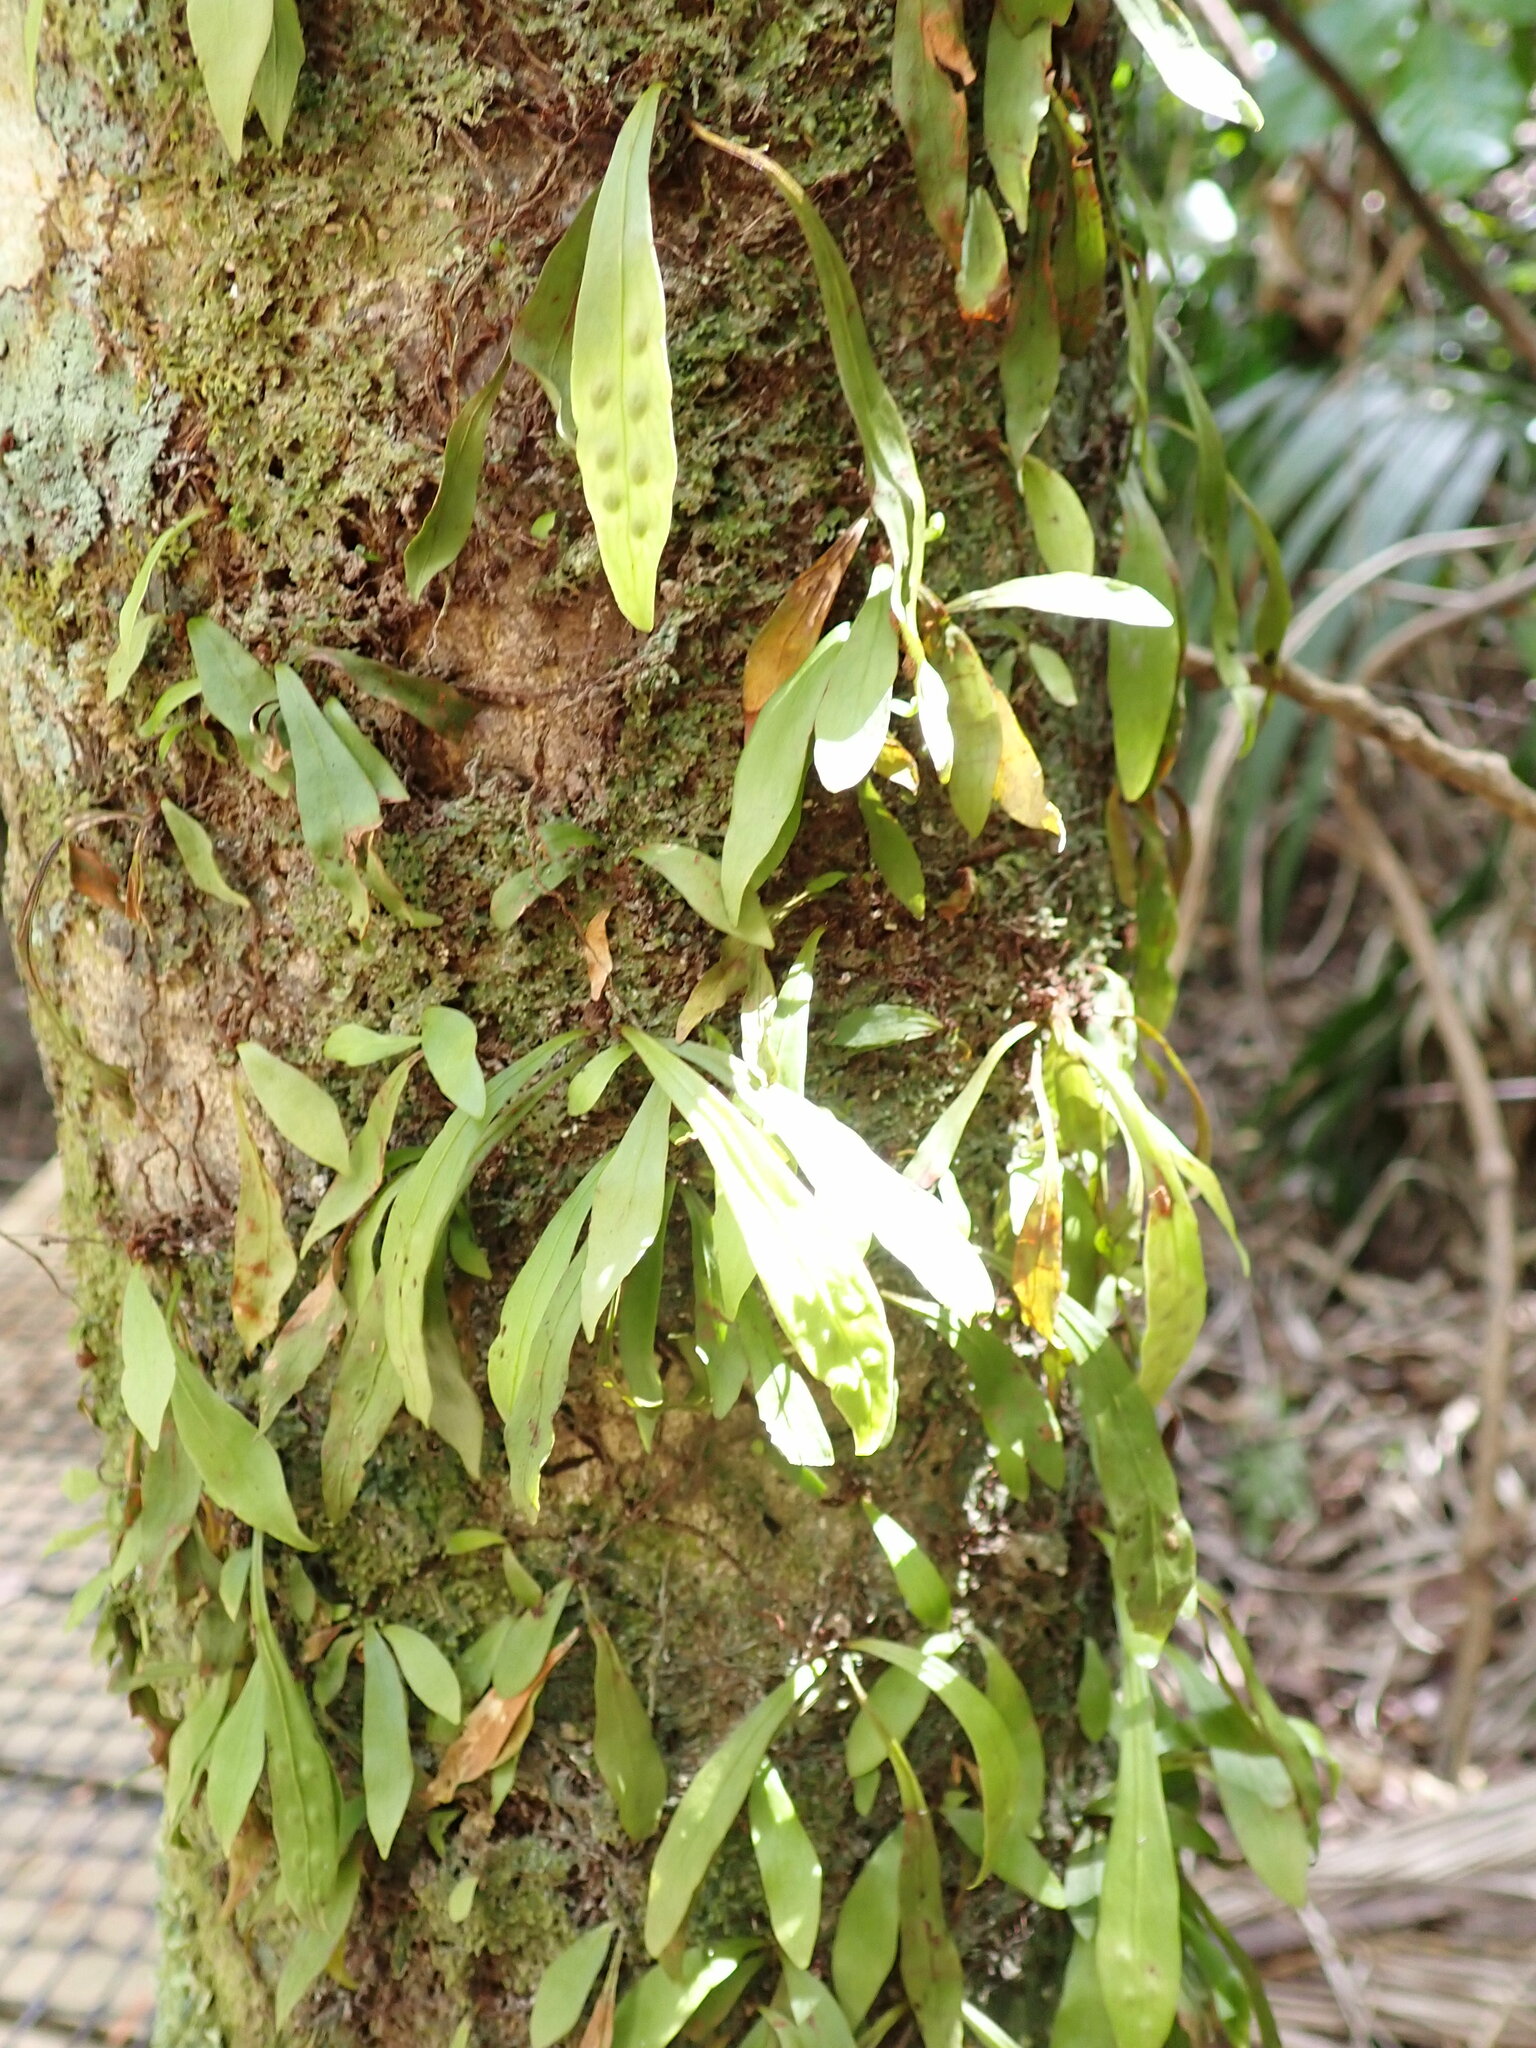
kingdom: Plantae
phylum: Tracheophyta
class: Polypodiopsida
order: Polypodiales
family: Polypodiaceae
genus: Loxogramme
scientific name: Loxogramme dictyopteris
